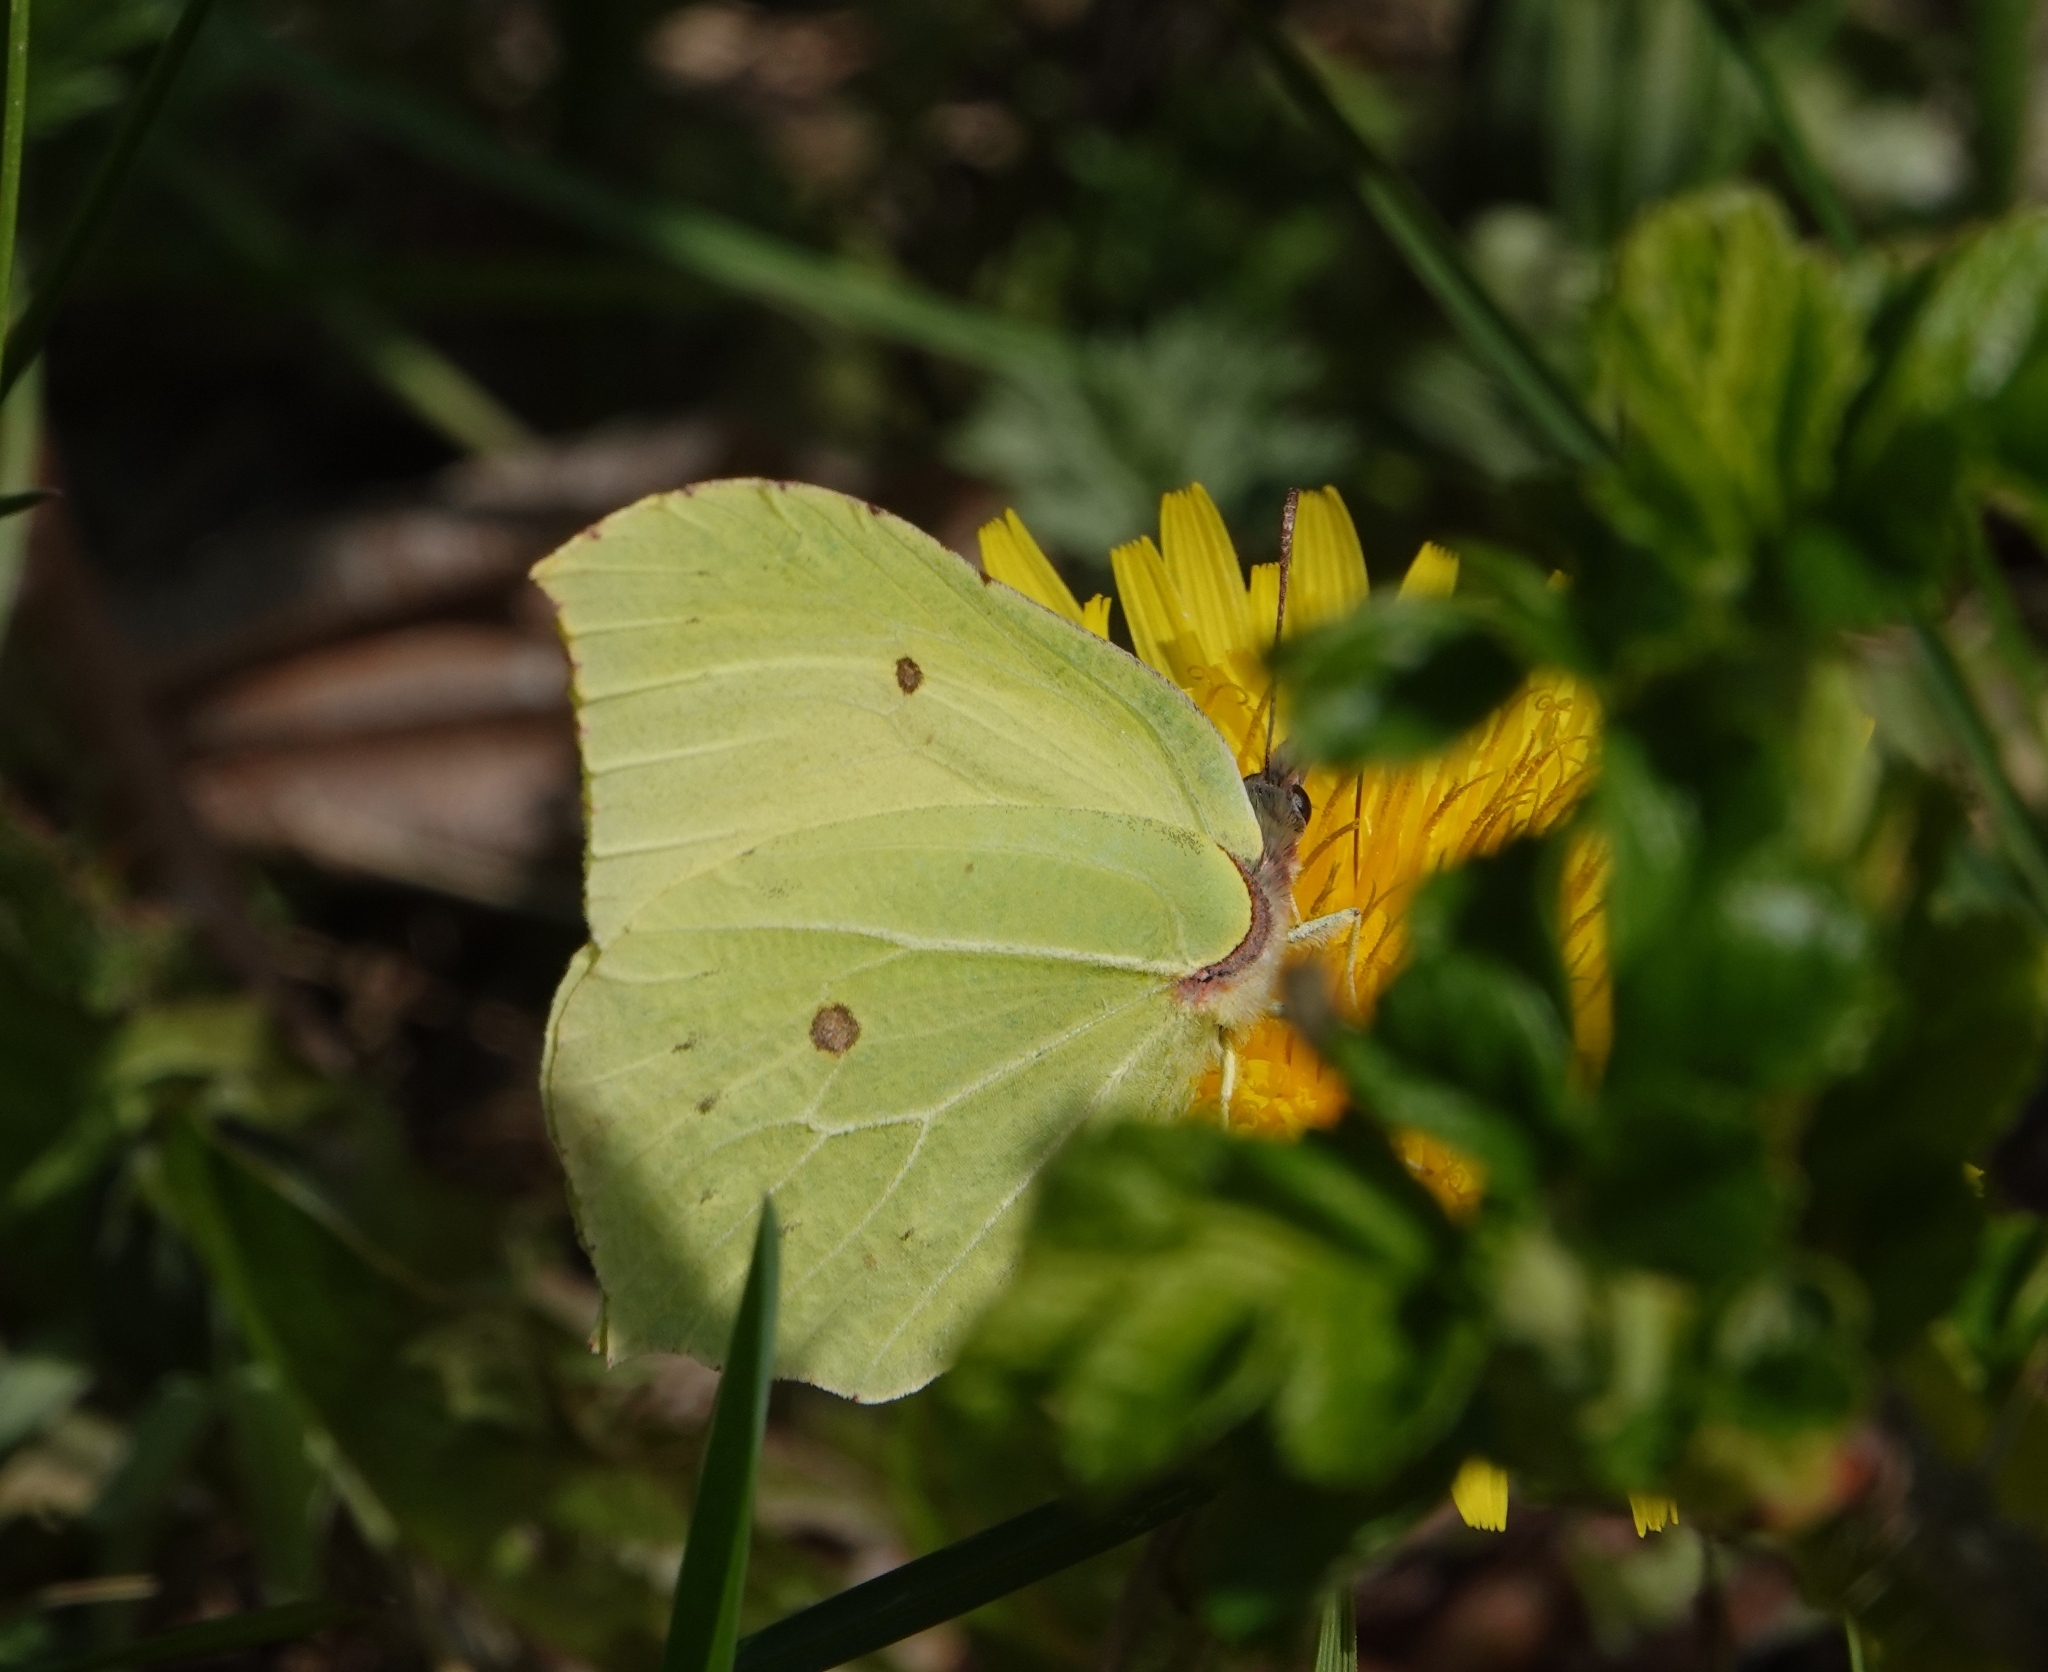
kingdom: Animalia
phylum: Arthropoda
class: Insecta
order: Lepidoptera
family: Pieridae
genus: Gonepteryx
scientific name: Gonepteryx rhamni
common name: Brimstone
